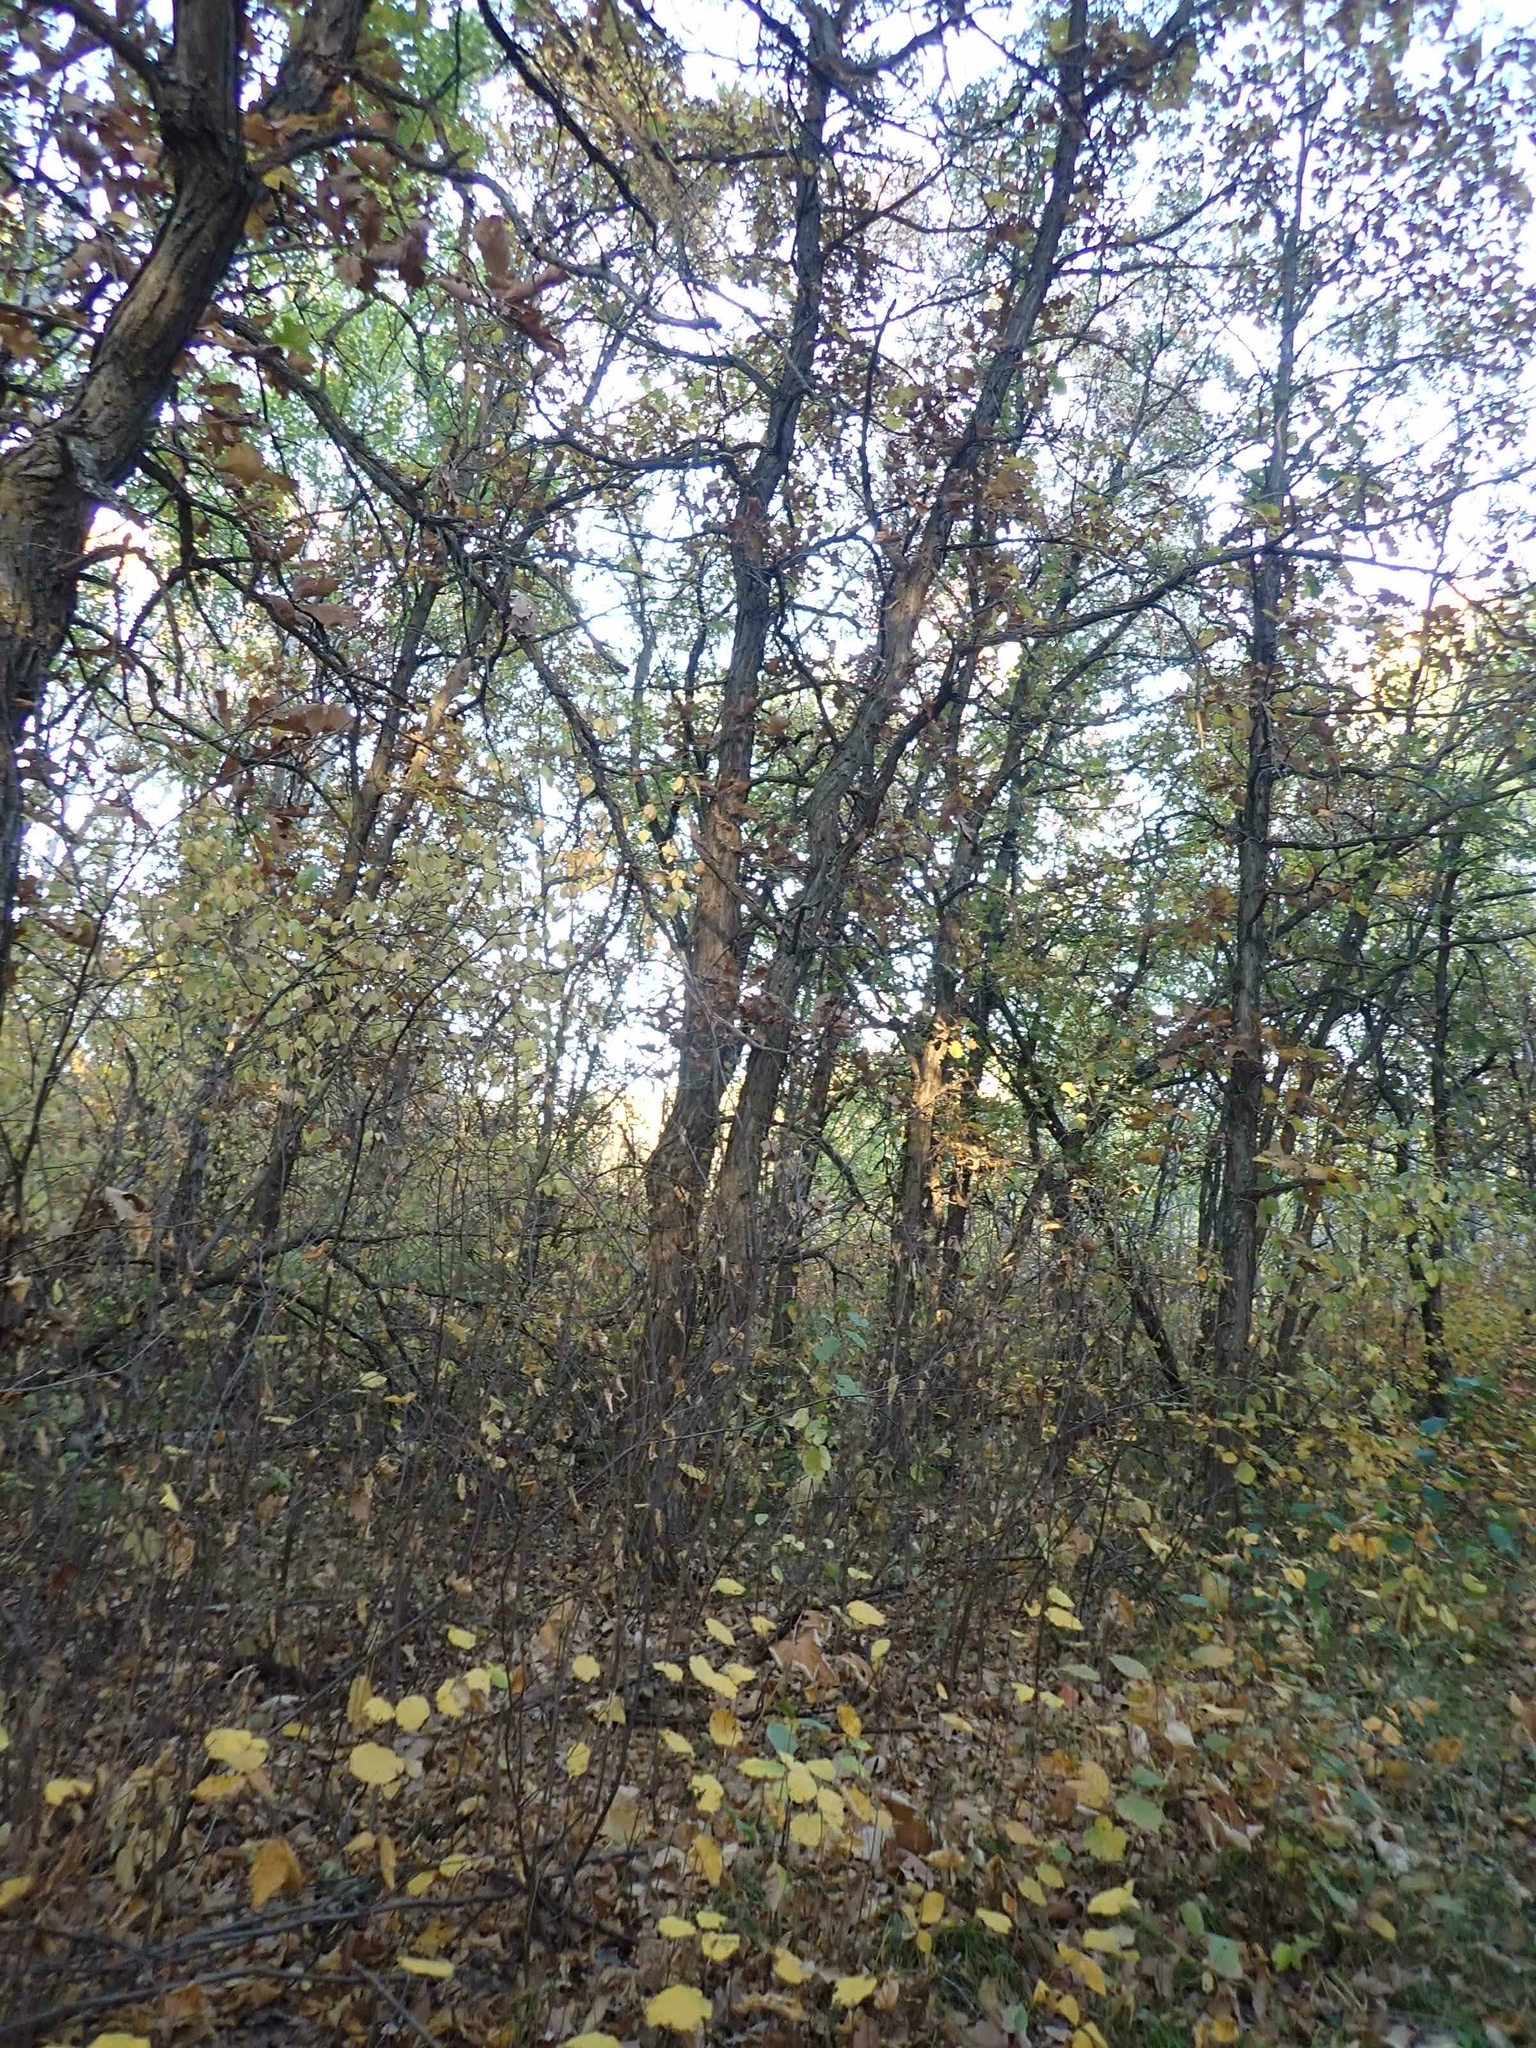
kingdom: Plantae
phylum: Tracheophyta
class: Magnoliopsida
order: Fagales
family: Fagaceae
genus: Quercus
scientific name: Quercus macrocarpa
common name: Bur oak
